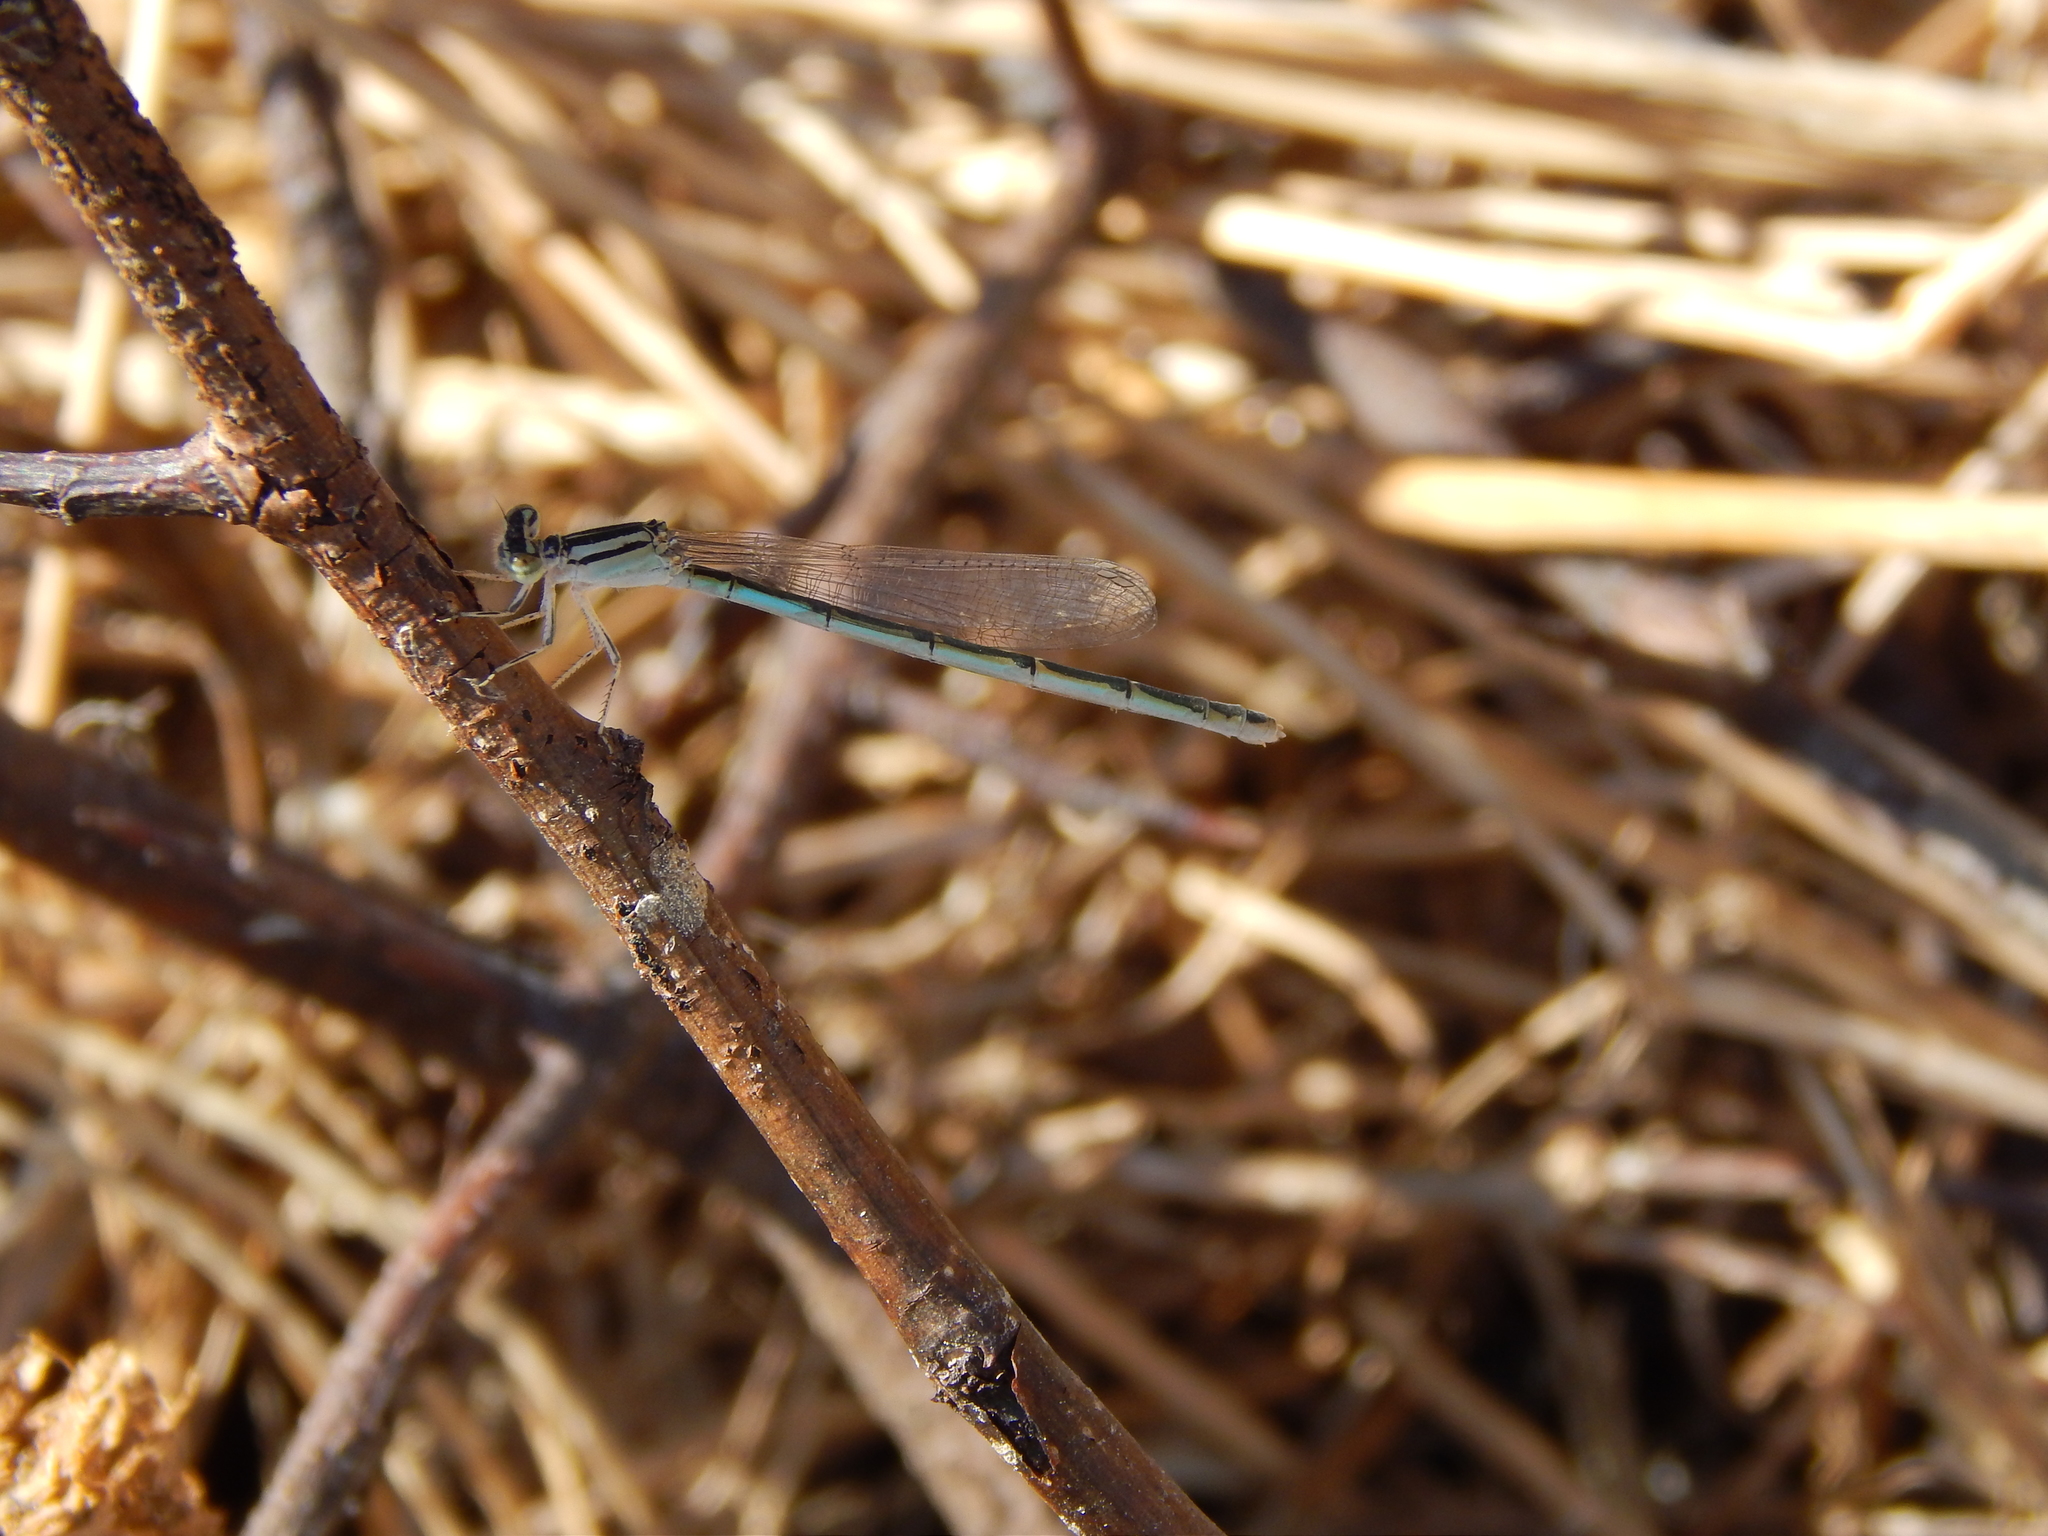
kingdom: Animalia
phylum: Arthropoda
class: Insecta
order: Odonata
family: Coenagrionidae
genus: Enallagma
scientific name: Enallagma
